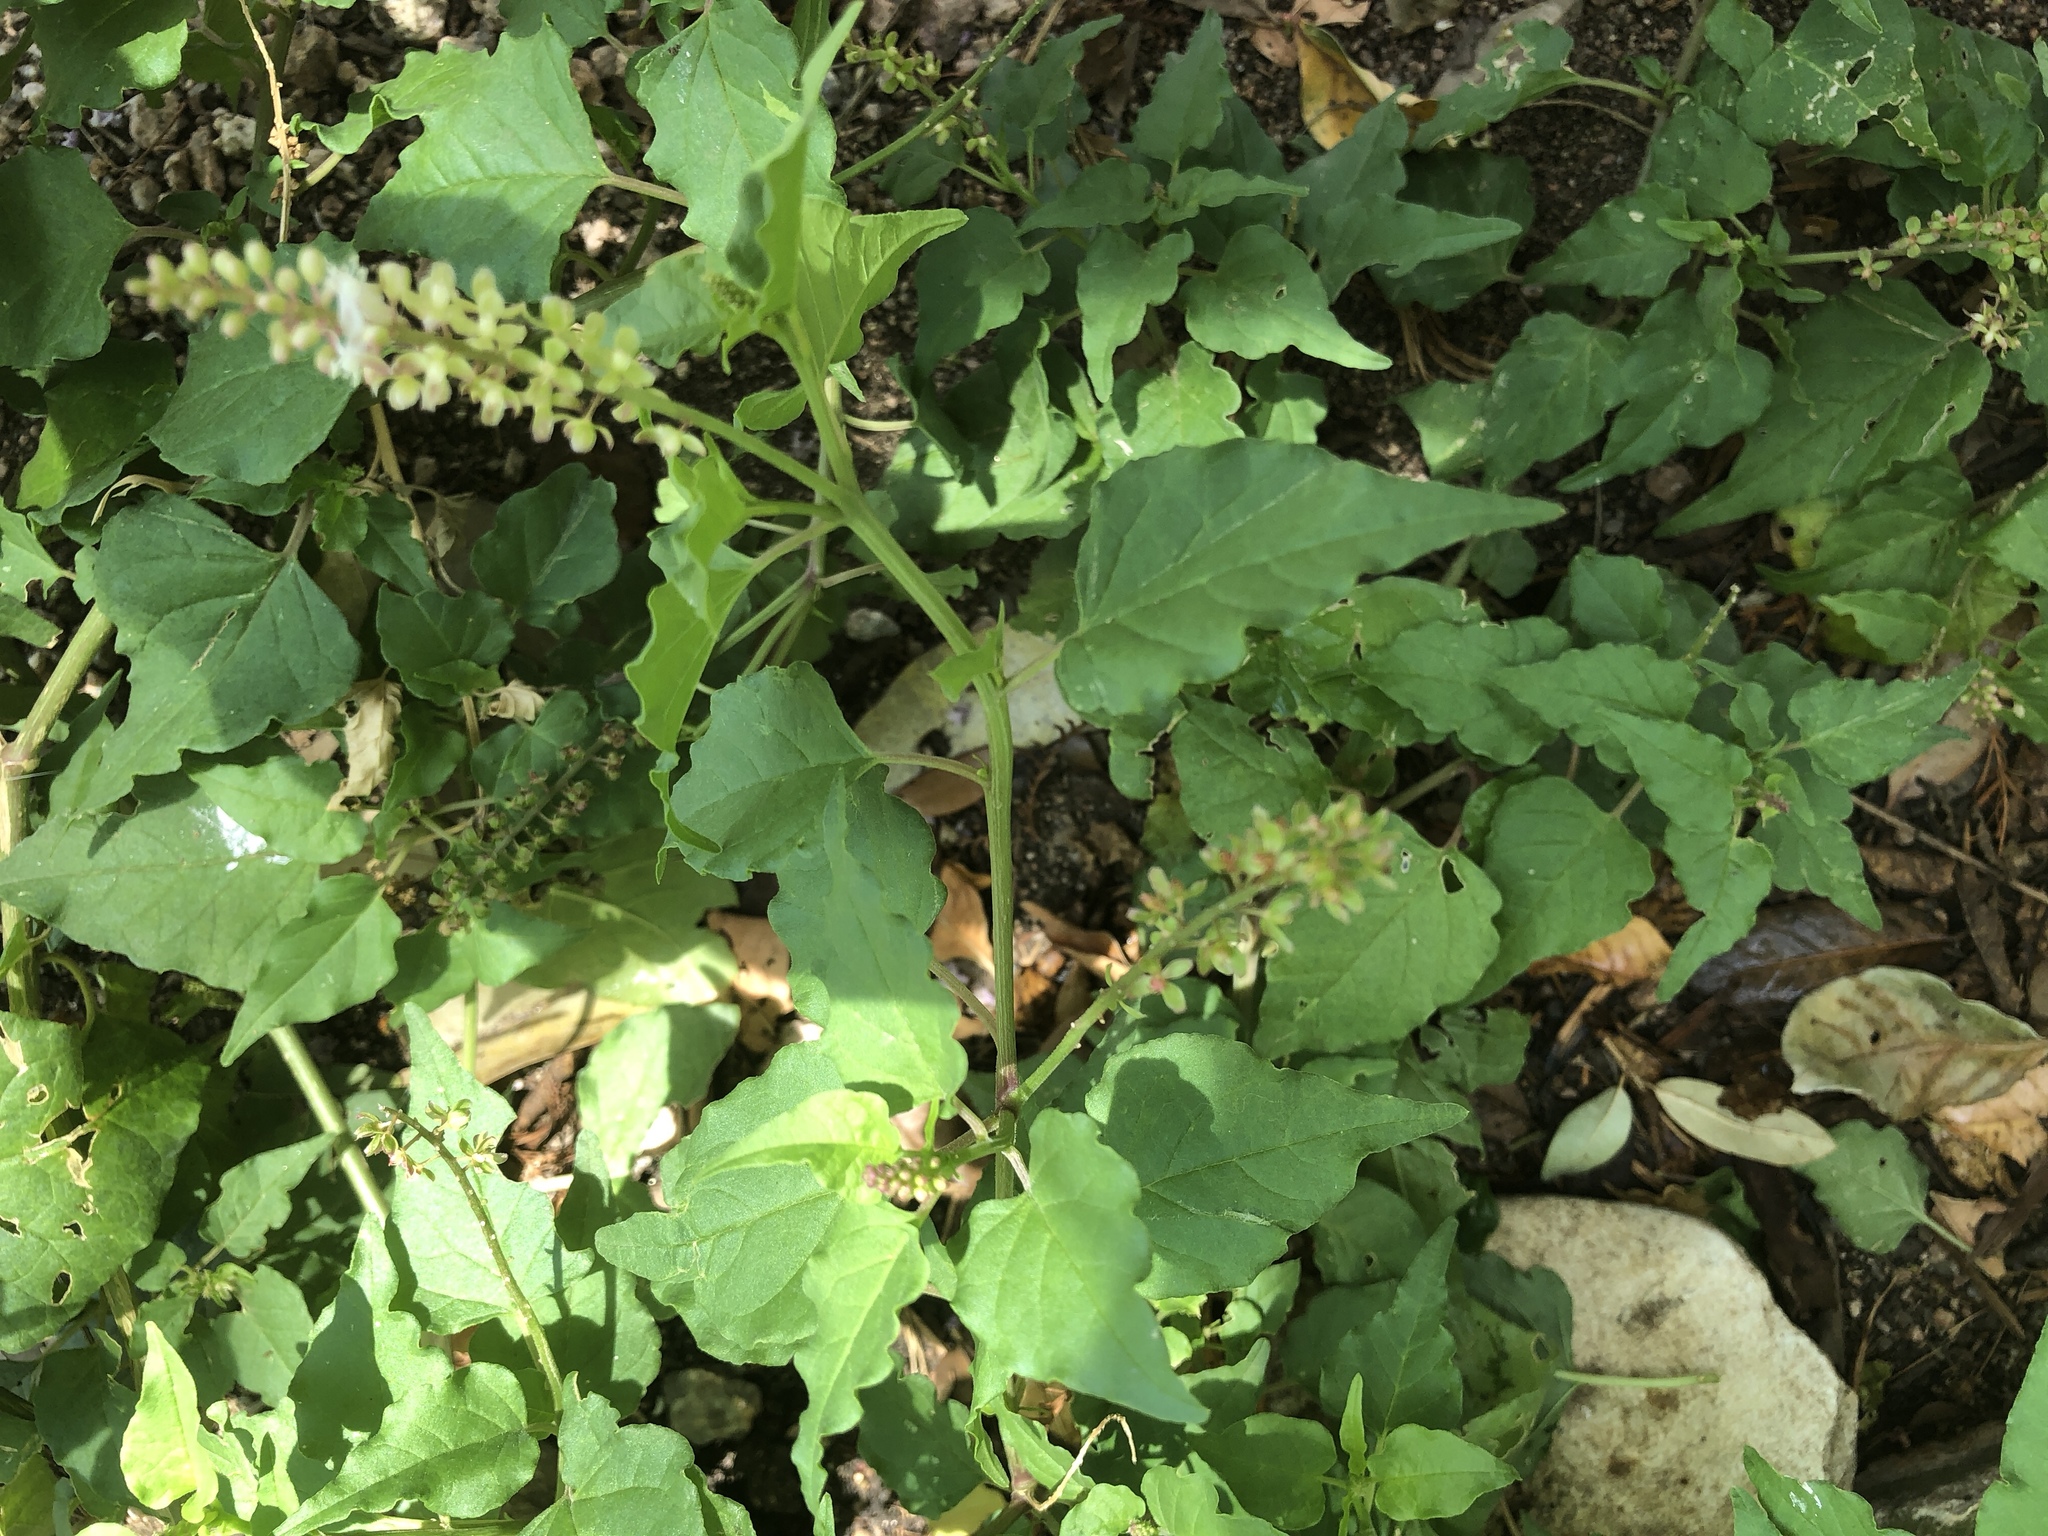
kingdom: Plantae
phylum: Tracheophyta
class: Magnoliopsida
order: Caryophyllales
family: Phytolaccaceae
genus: Rivina
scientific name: Rivina humilis
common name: Rougeplant
